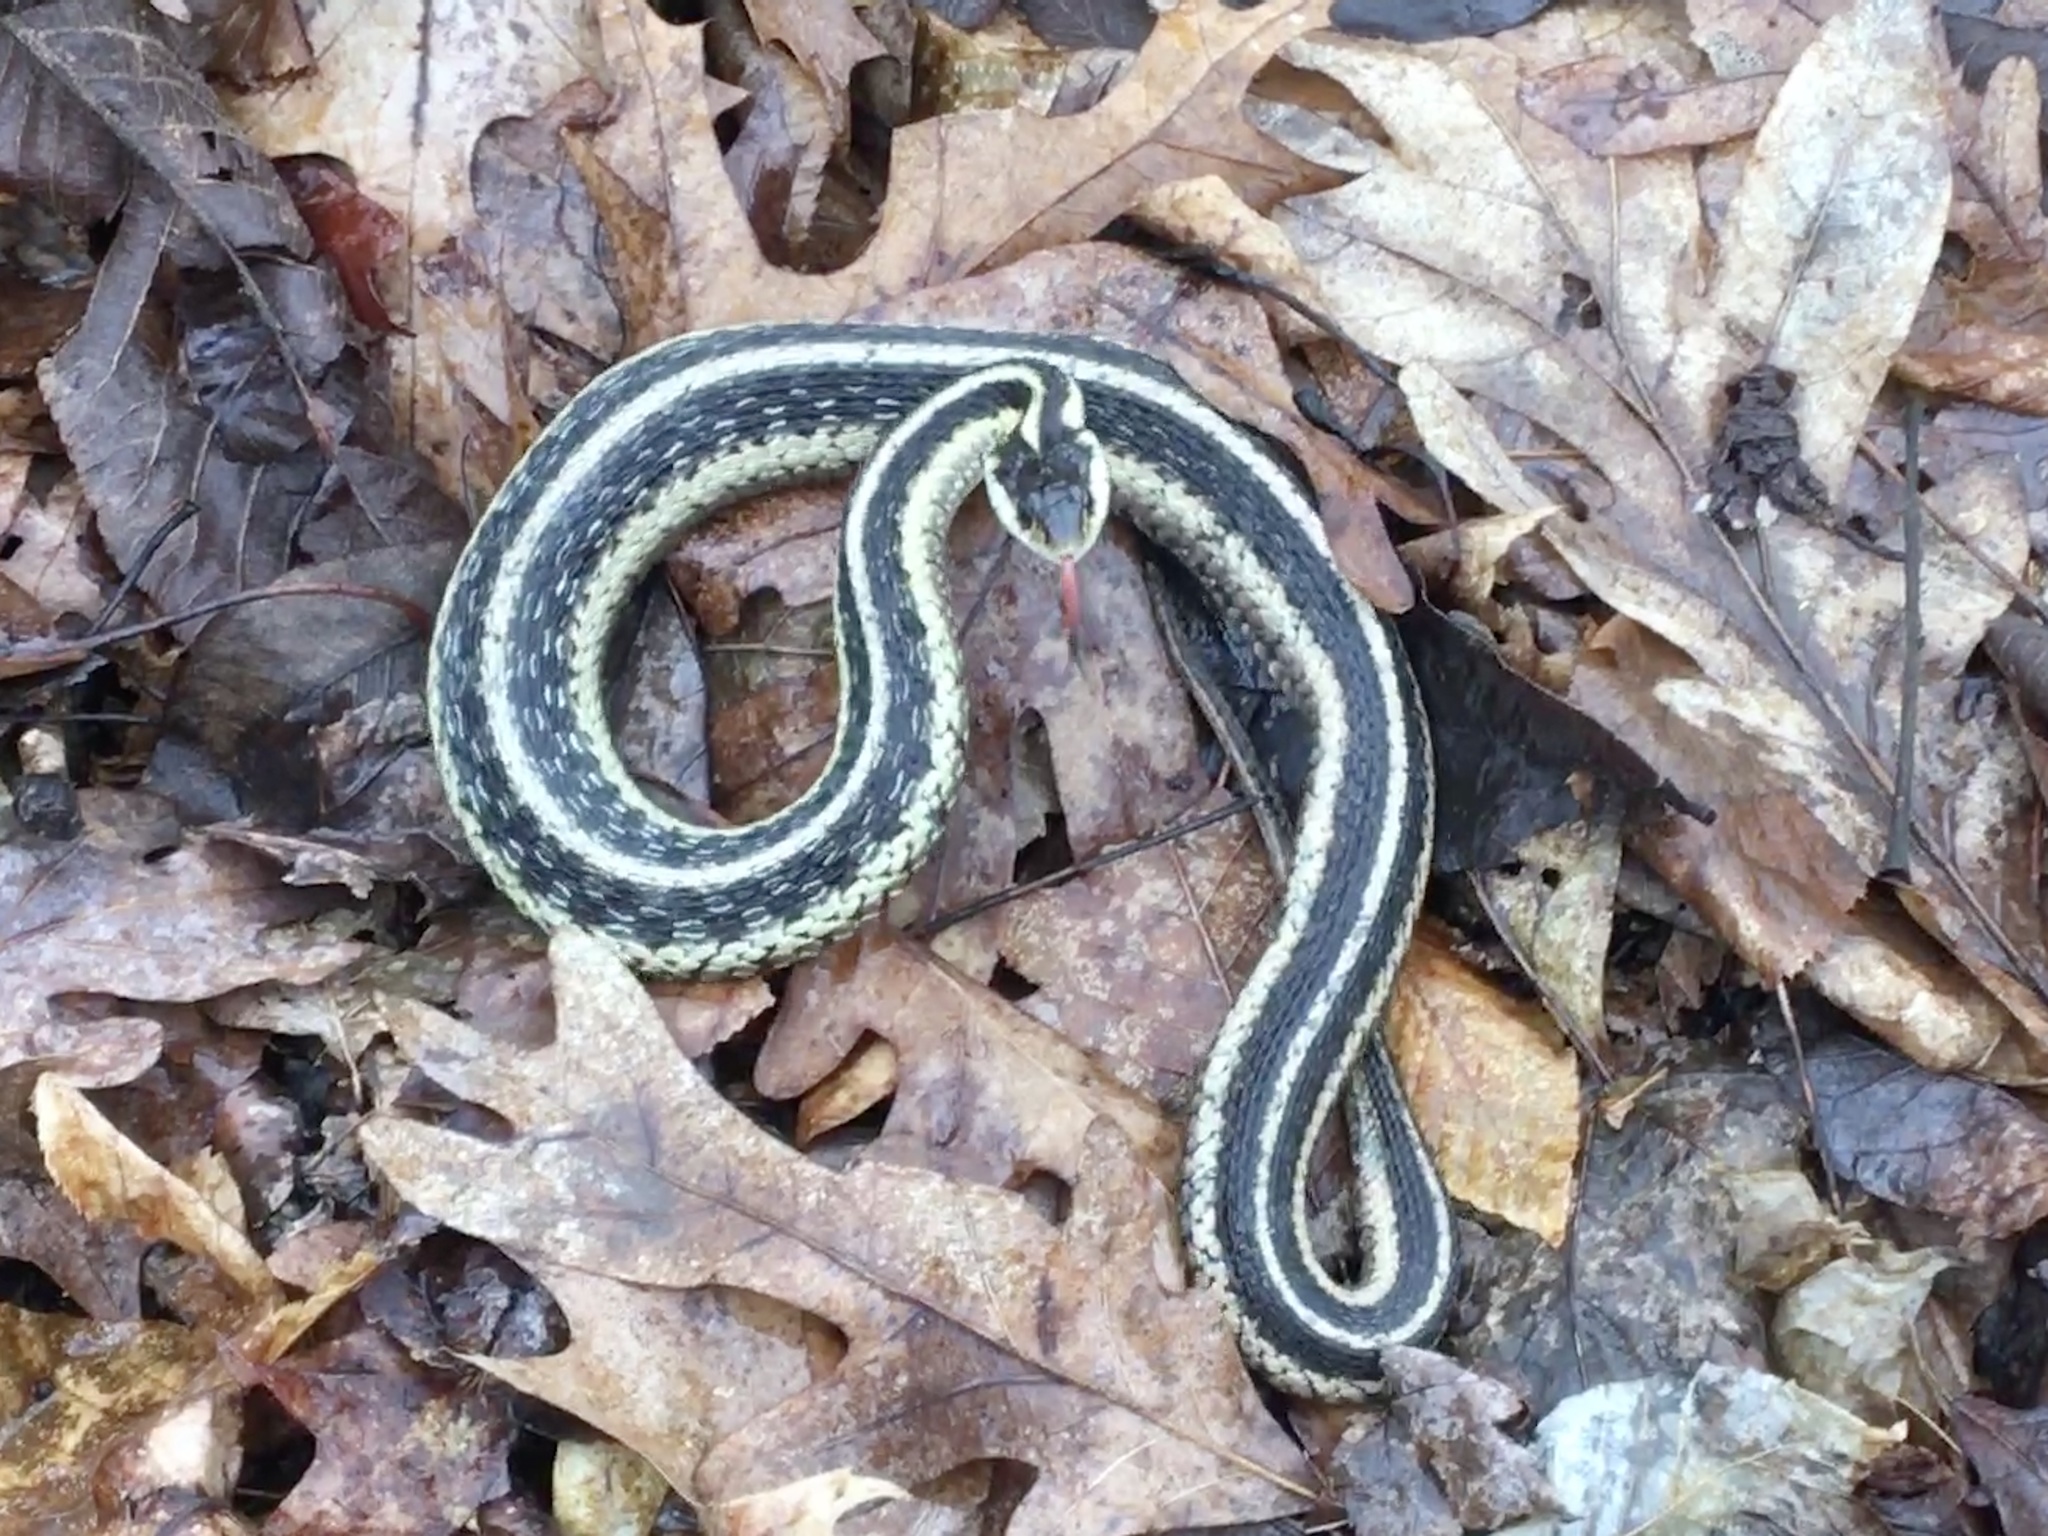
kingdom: Animalia
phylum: Chordata
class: Squamata
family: Colubridae
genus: Thamnophis
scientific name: Thamnophis sirtalis
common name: Common garter snake
